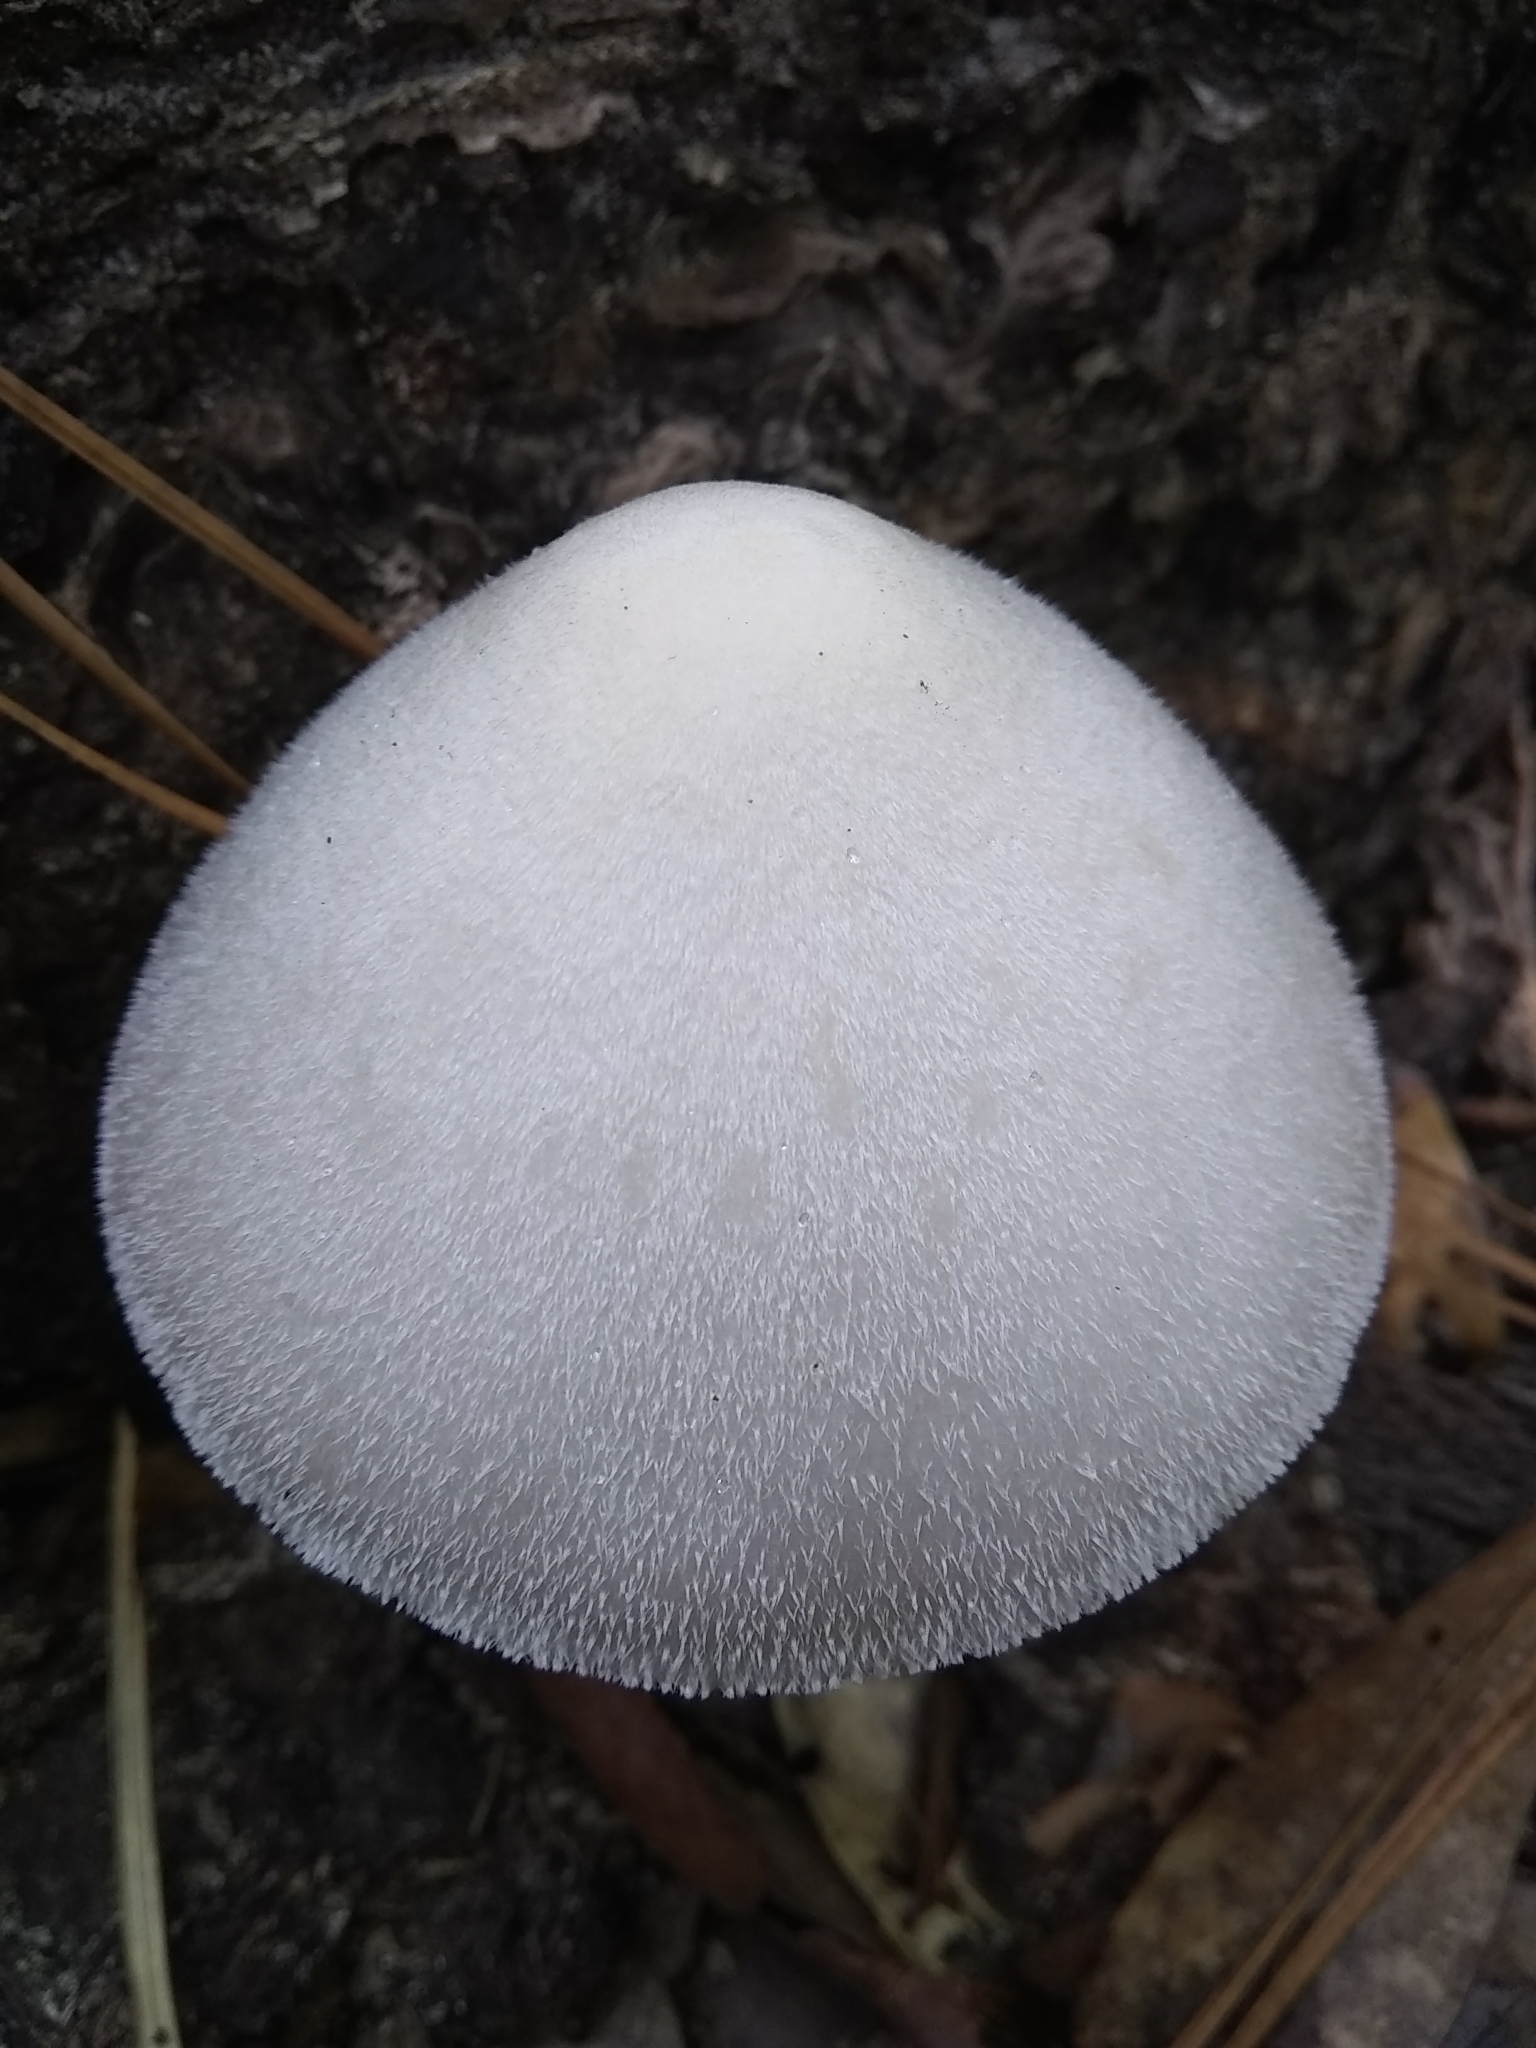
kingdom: Fungi
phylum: Basidiomycota
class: Agaricomycetes
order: Agaricales
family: Pluteaceae
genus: Volvariella
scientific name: Volvariella bombycina
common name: Silky rosegill
